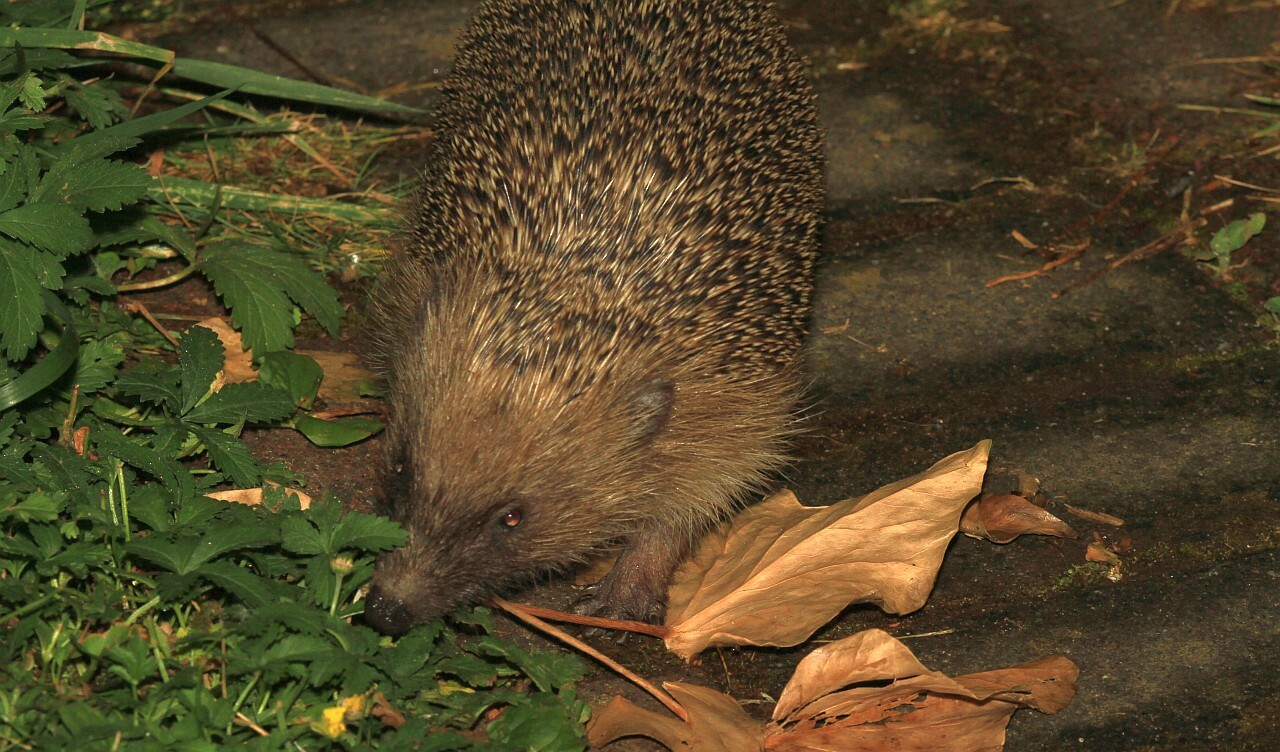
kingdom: Animalia
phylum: Chordata
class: Mammalia
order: Erinaceomorpha
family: Erinaceidae
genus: Erinaceus
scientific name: Erinaceus europaeus
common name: West european hedgehog
